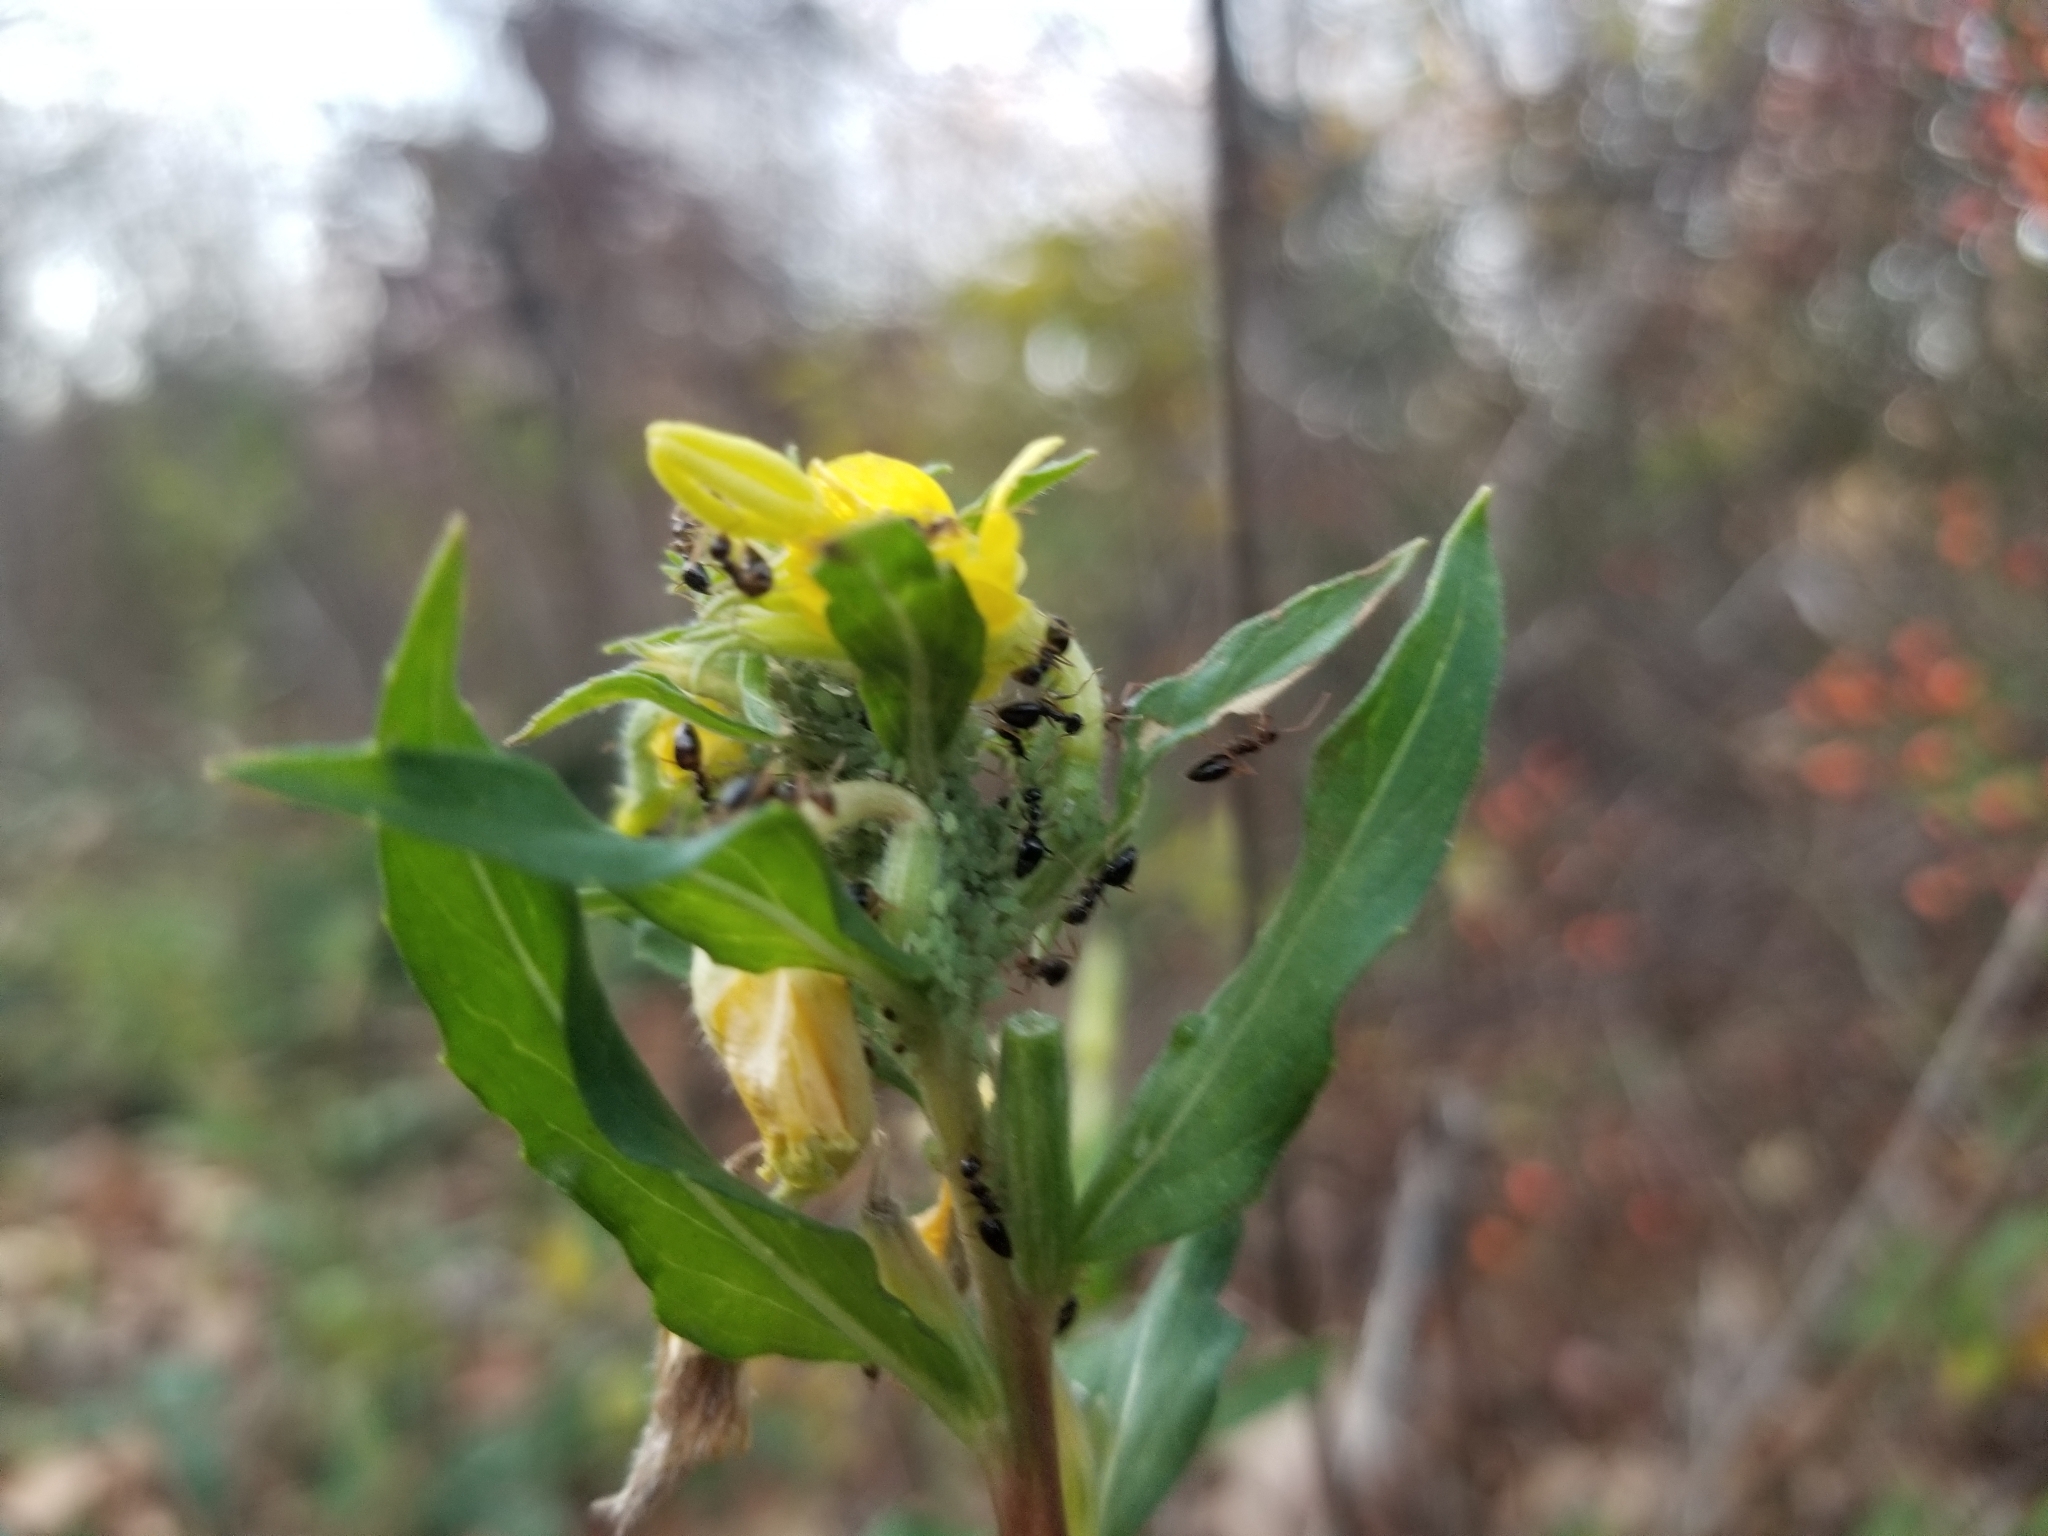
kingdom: Plantae
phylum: Tracheophyta
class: Magnoliopsida
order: Myrtales
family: Onagraceae
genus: Oenothera
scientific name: Oenothera biennis
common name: Common evening-primrose
